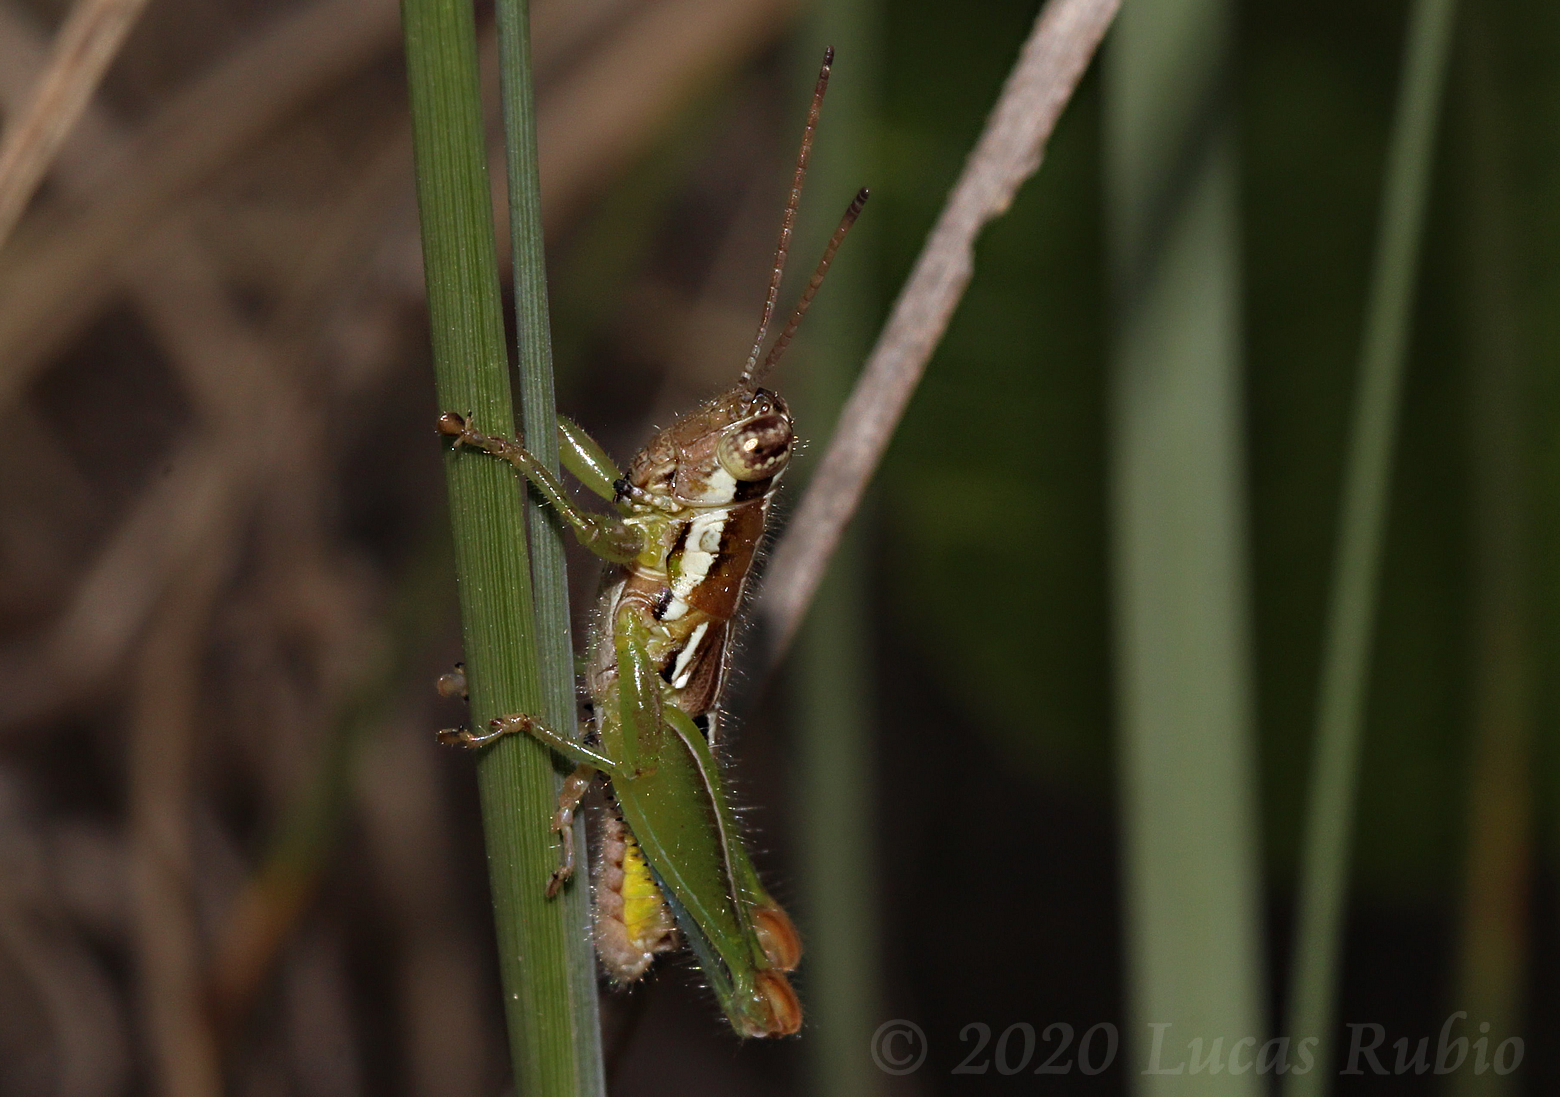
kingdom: Animalia
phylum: Arthropoda
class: Insecta
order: Orthoptera
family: Acrididae
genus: Neopedies
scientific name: Neopedies brunneri
